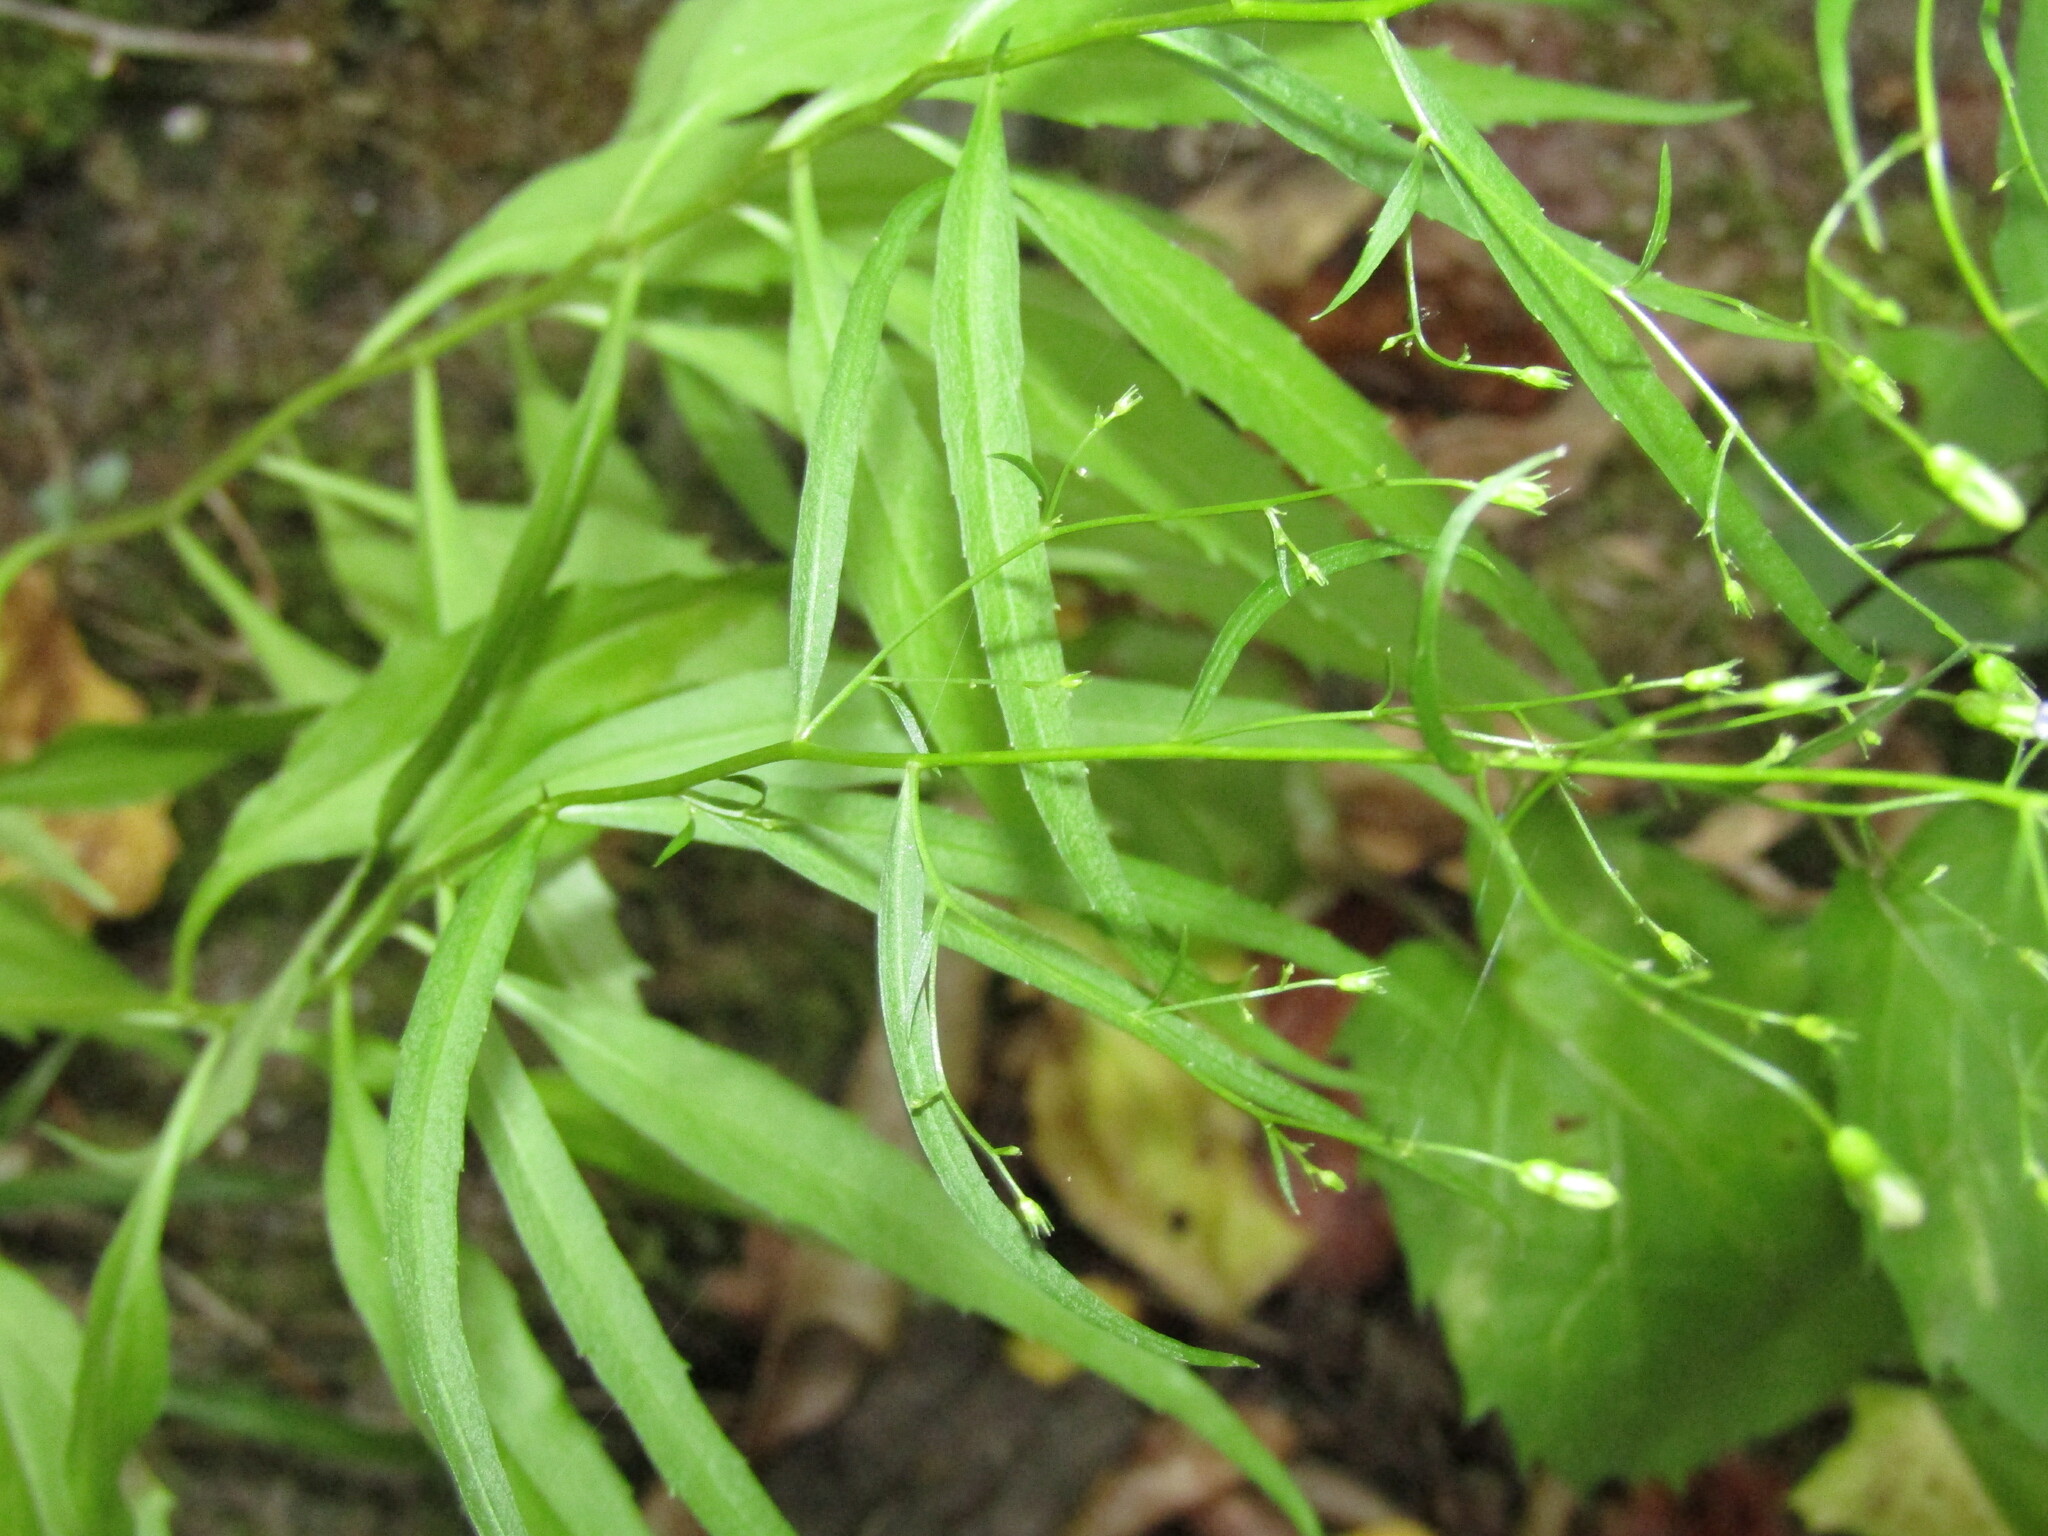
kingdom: Plantae
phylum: Tracheophyta
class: Magnoliopsida
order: Asterales
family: Campanulaceae
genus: Campanula
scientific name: Campanula divaricata
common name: Appalachian bellflower
